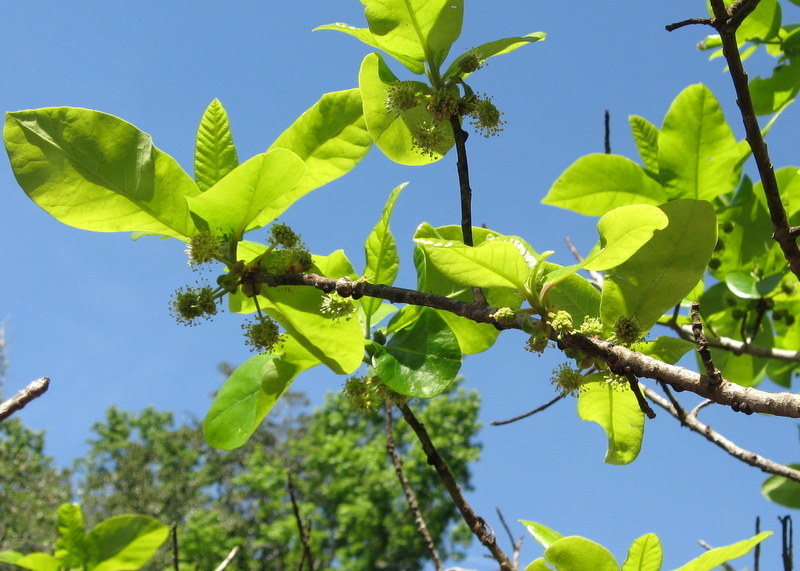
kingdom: Plantae
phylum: Tracheophyta
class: Magnoliopsida
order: Cornales
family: Nyssaceae
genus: Nyssa
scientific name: Nyssa ogeche
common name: Ogeechee tupelo
